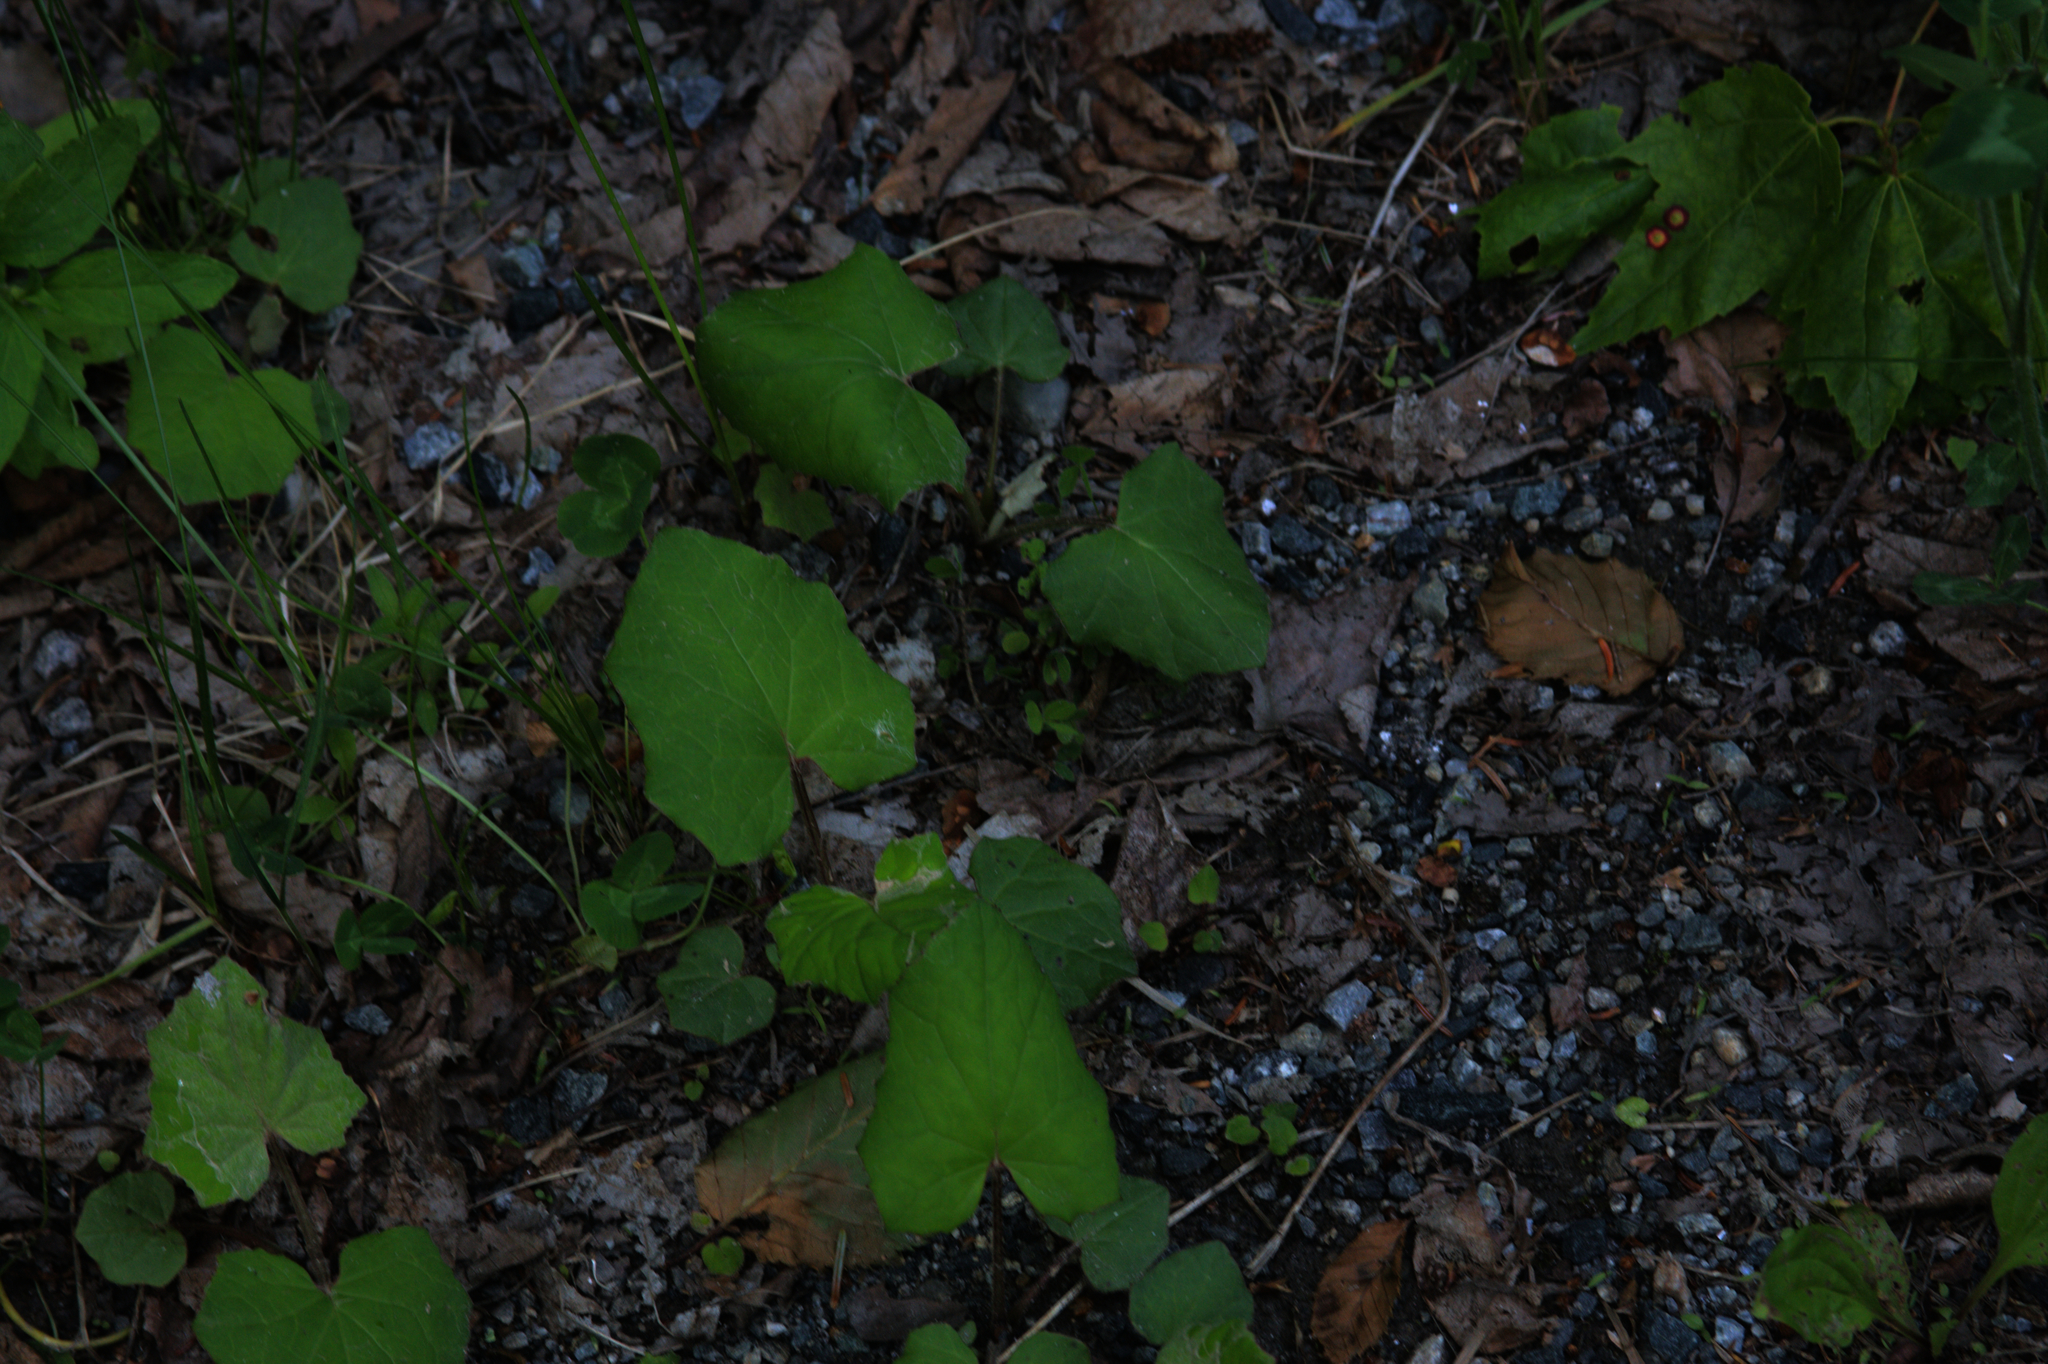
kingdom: Plantae
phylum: Tracheophyta
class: Magnoliopsida
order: Asterales
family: Asteraceae
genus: Tussilago
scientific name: Tussilago farfara
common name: Coltsfoot
